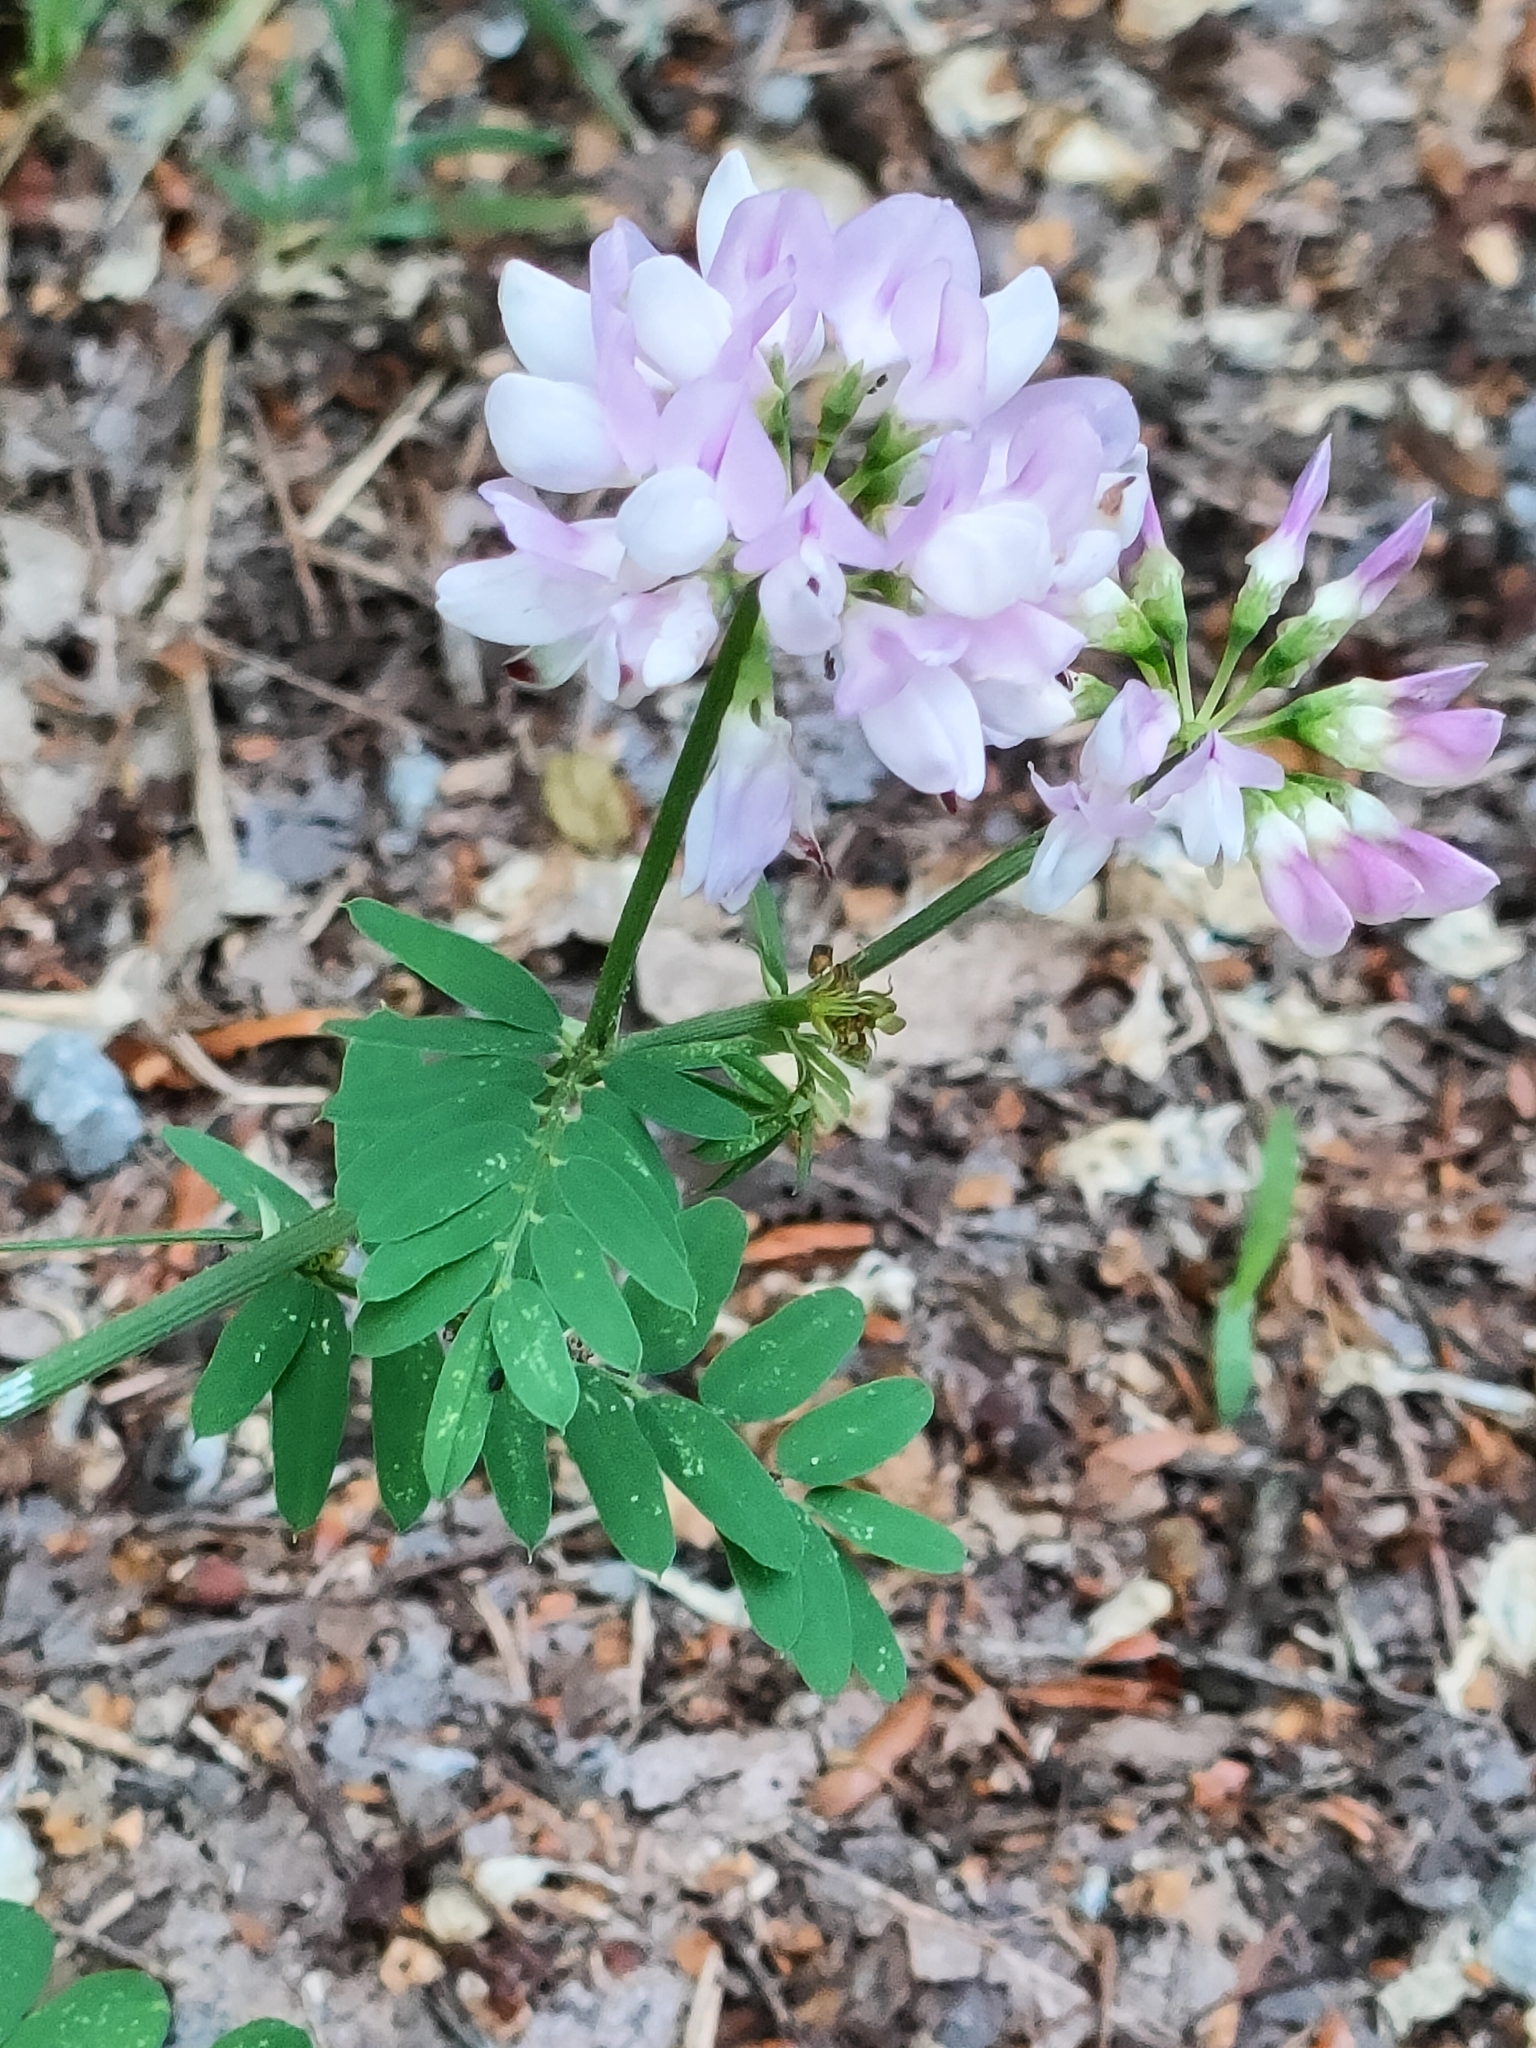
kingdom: Plantae
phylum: Tracheophyta
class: Magnoliopsida
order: Fabales
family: Fabaceae
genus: Coronilla
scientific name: Coronilla varia
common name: Crownvetch
